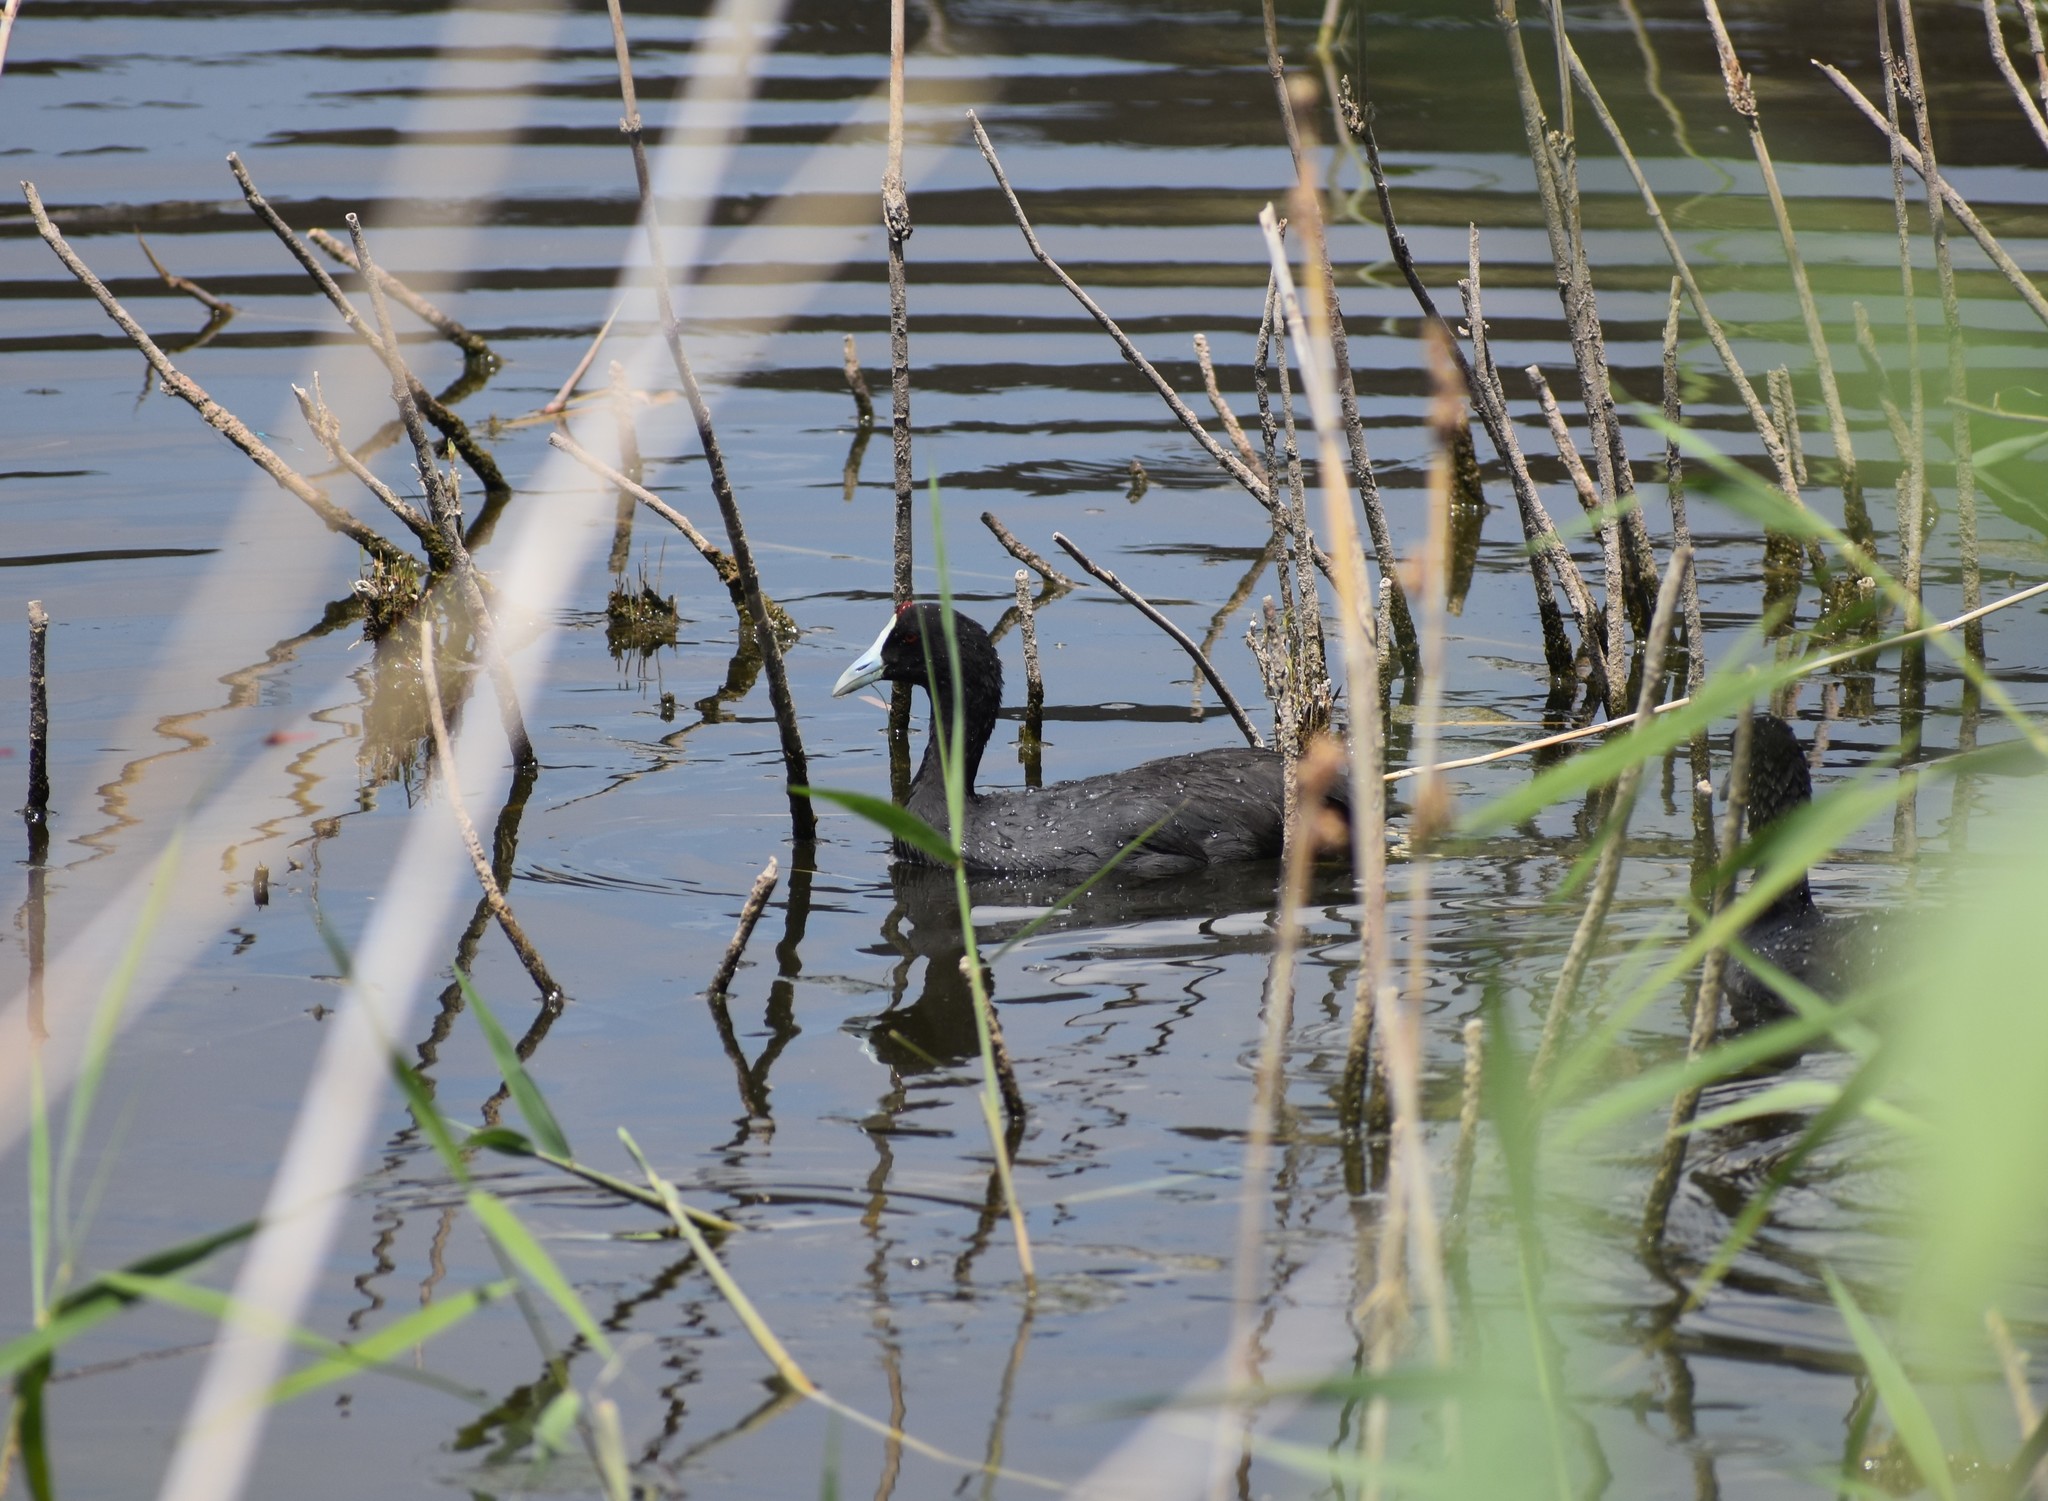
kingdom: Animalia
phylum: Chordata
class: Aves
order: Gruiformes
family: Rallidae
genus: Fulica
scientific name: Fulica cristata
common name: Red-knobbed coot
